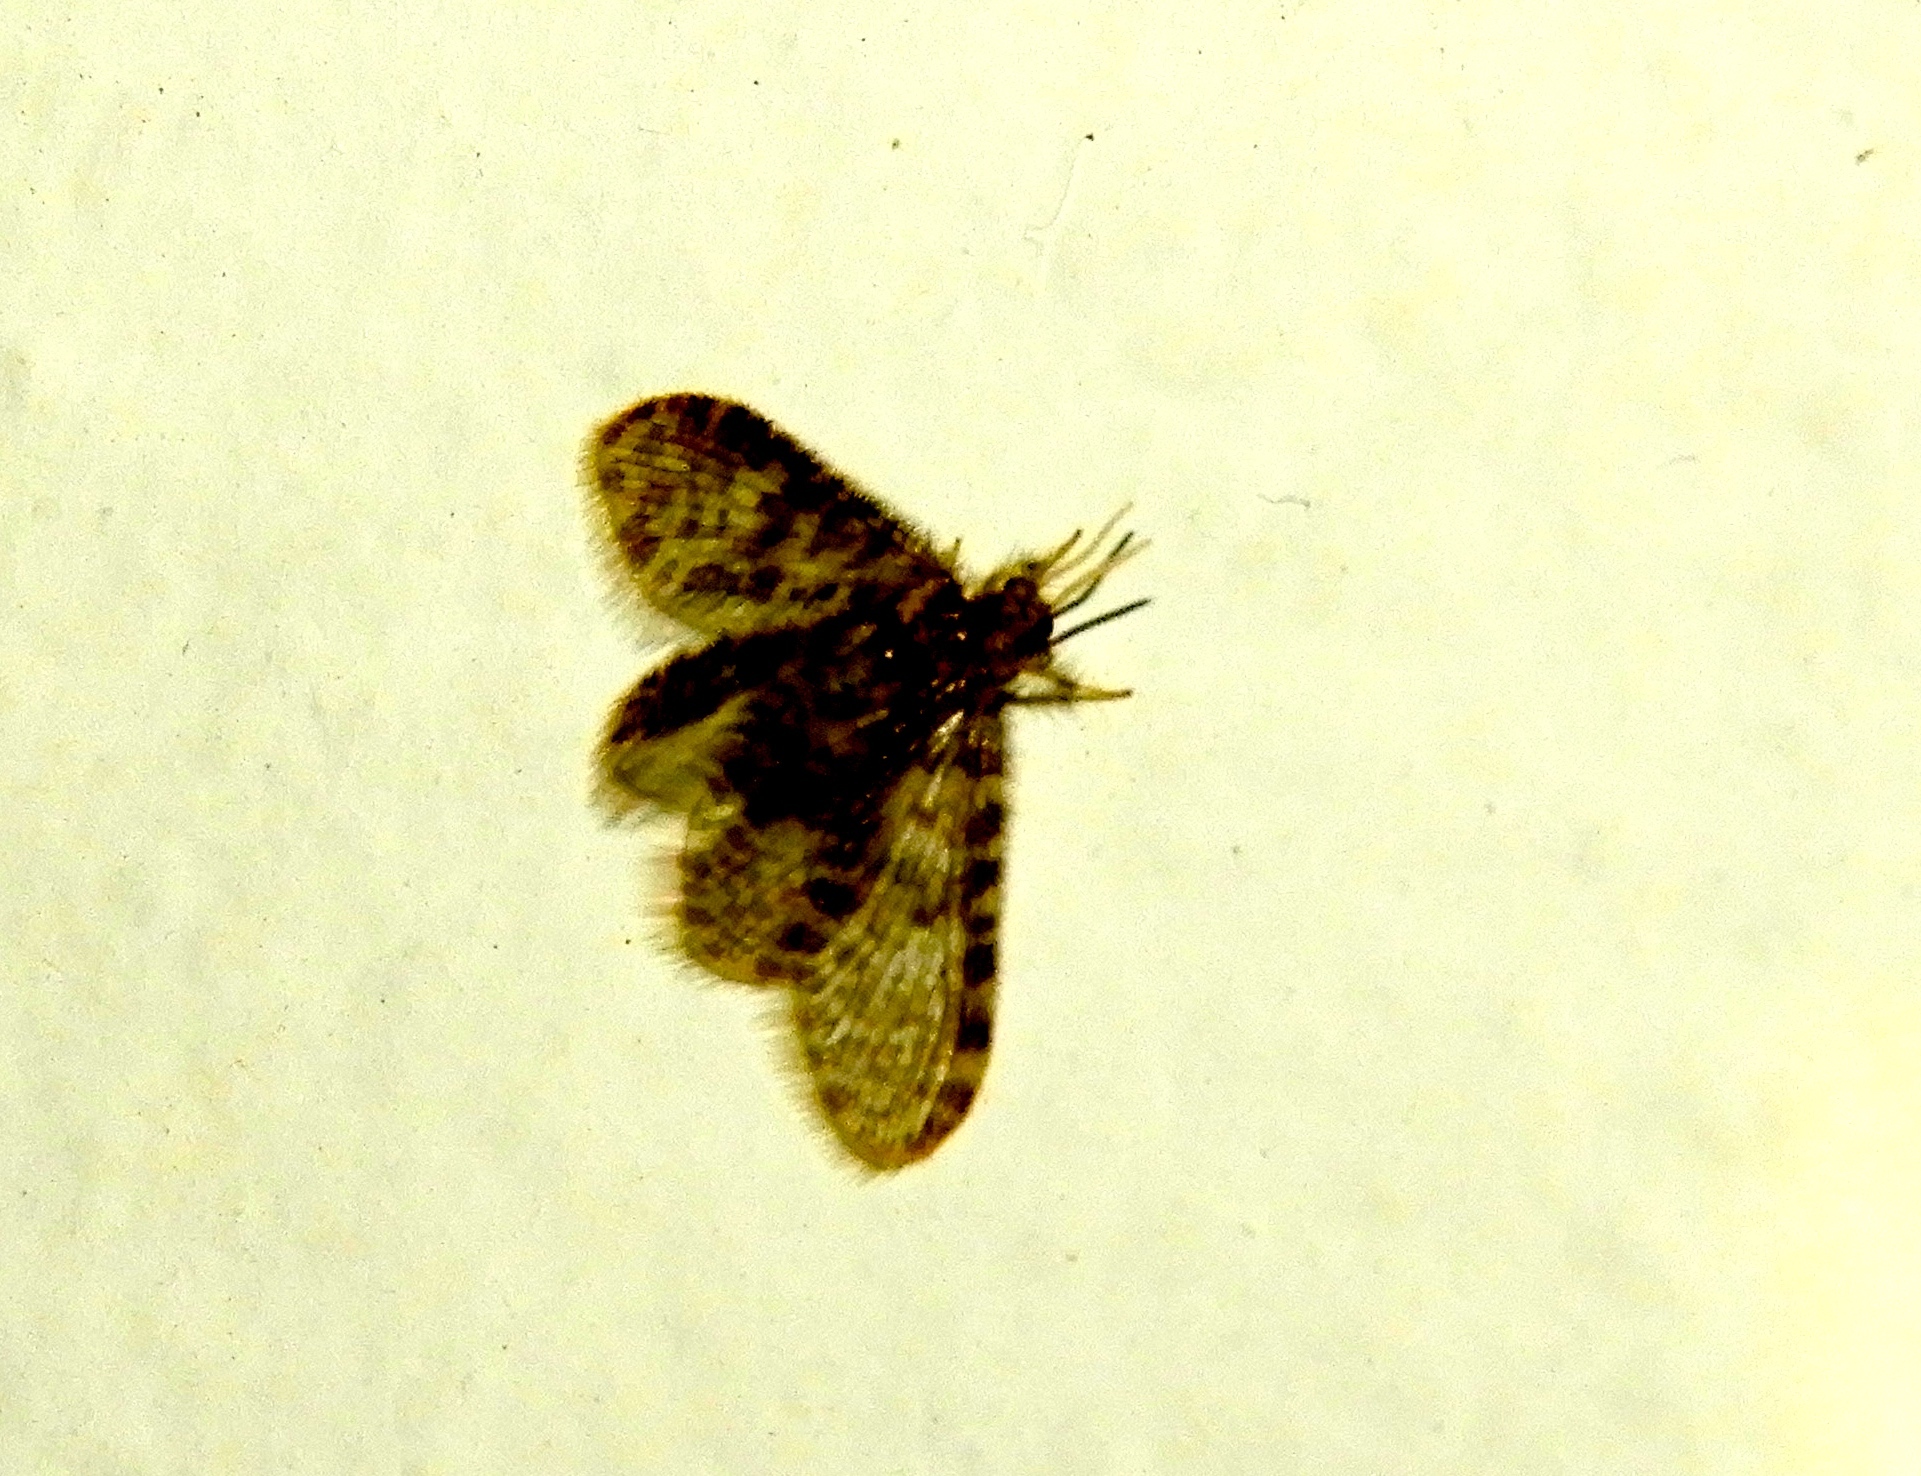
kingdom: Animalia
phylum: Arthropoda
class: Insecta
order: Neuroptera
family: Dilaridae
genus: Nallachius
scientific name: Nallachius pulchellus
